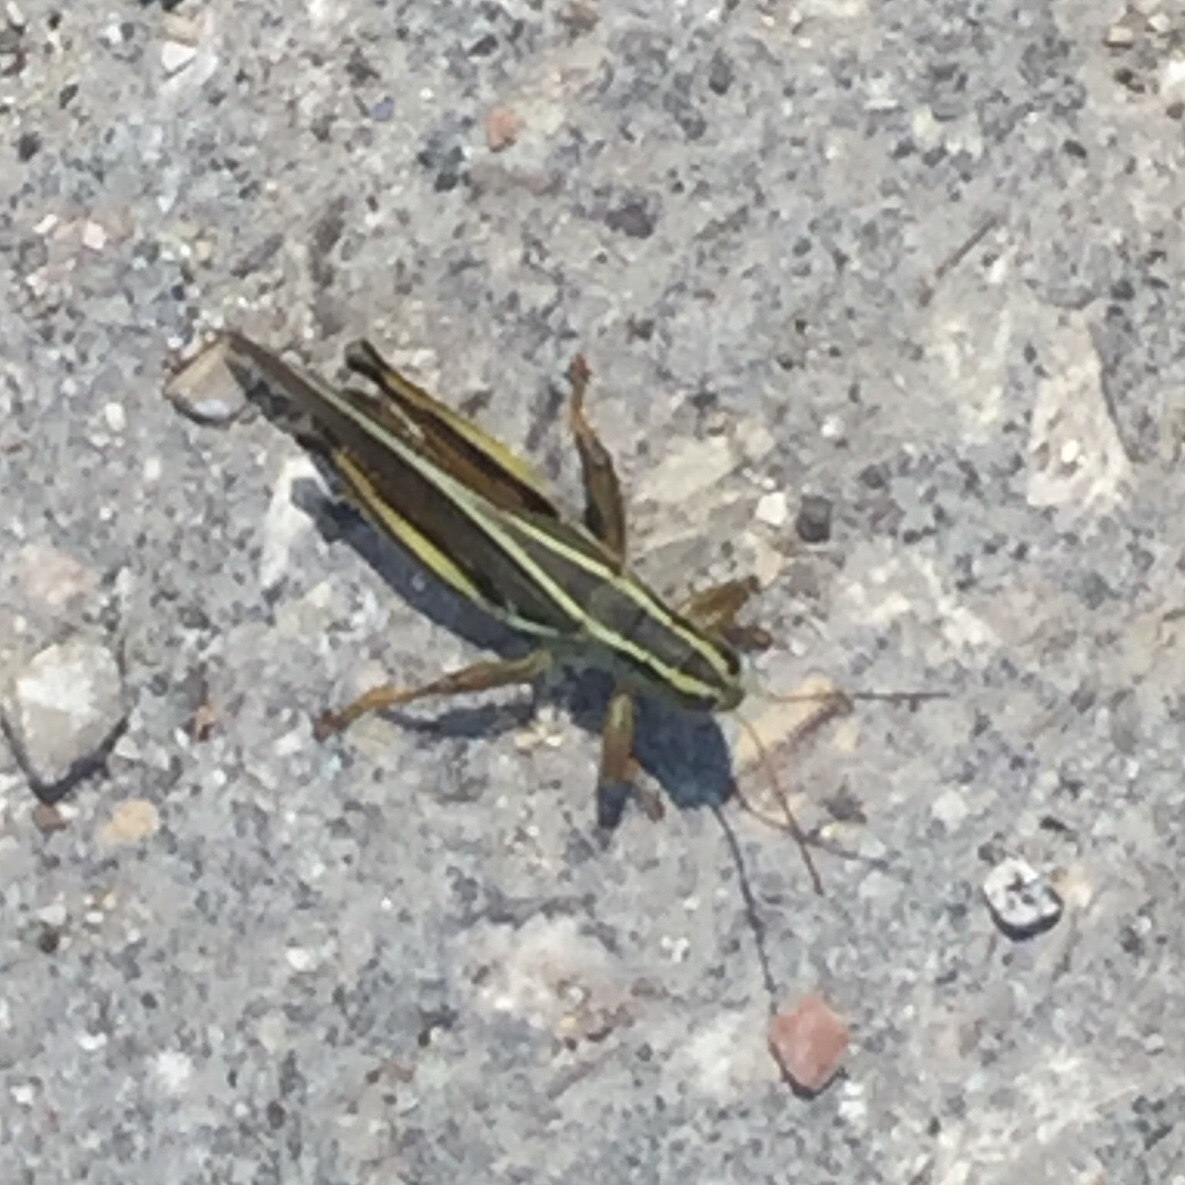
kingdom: Animalia
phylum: Arthropoda
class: Insecta
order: Orthoptera
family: Acrididae
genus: Melanoplus
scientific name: Melanoplus bivittatus
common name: Two-striped grasshopper
